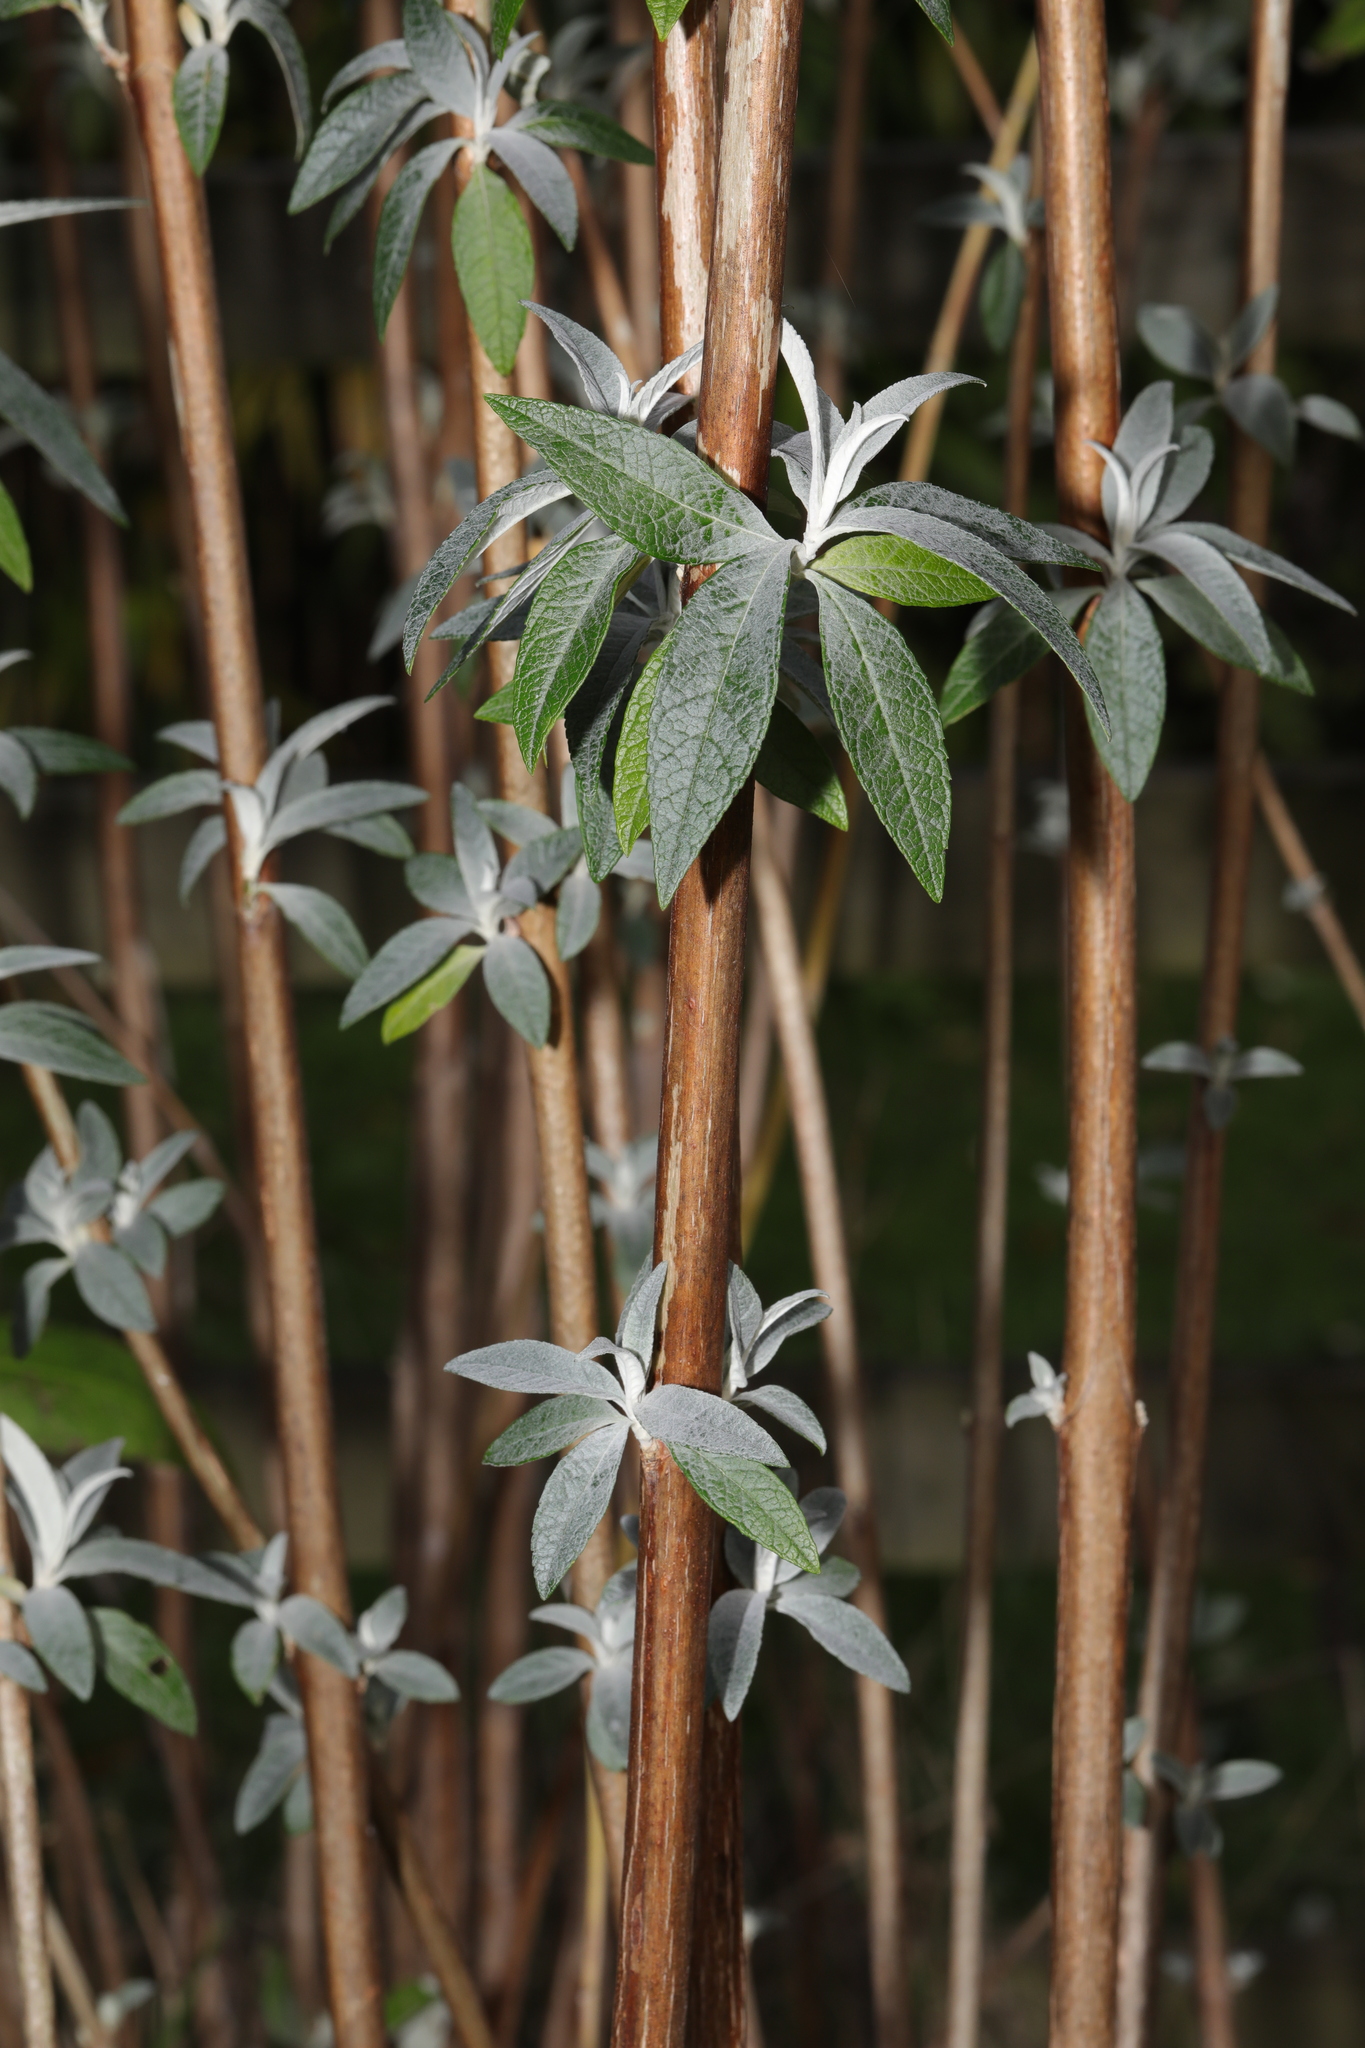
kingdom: Plantae
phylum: Tracheophyta
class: Magnoliopsida
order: Lamiales
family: Scrophulariaceae
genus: Buddleja
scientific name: Buddleja davidii
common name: Butterfly-bush
